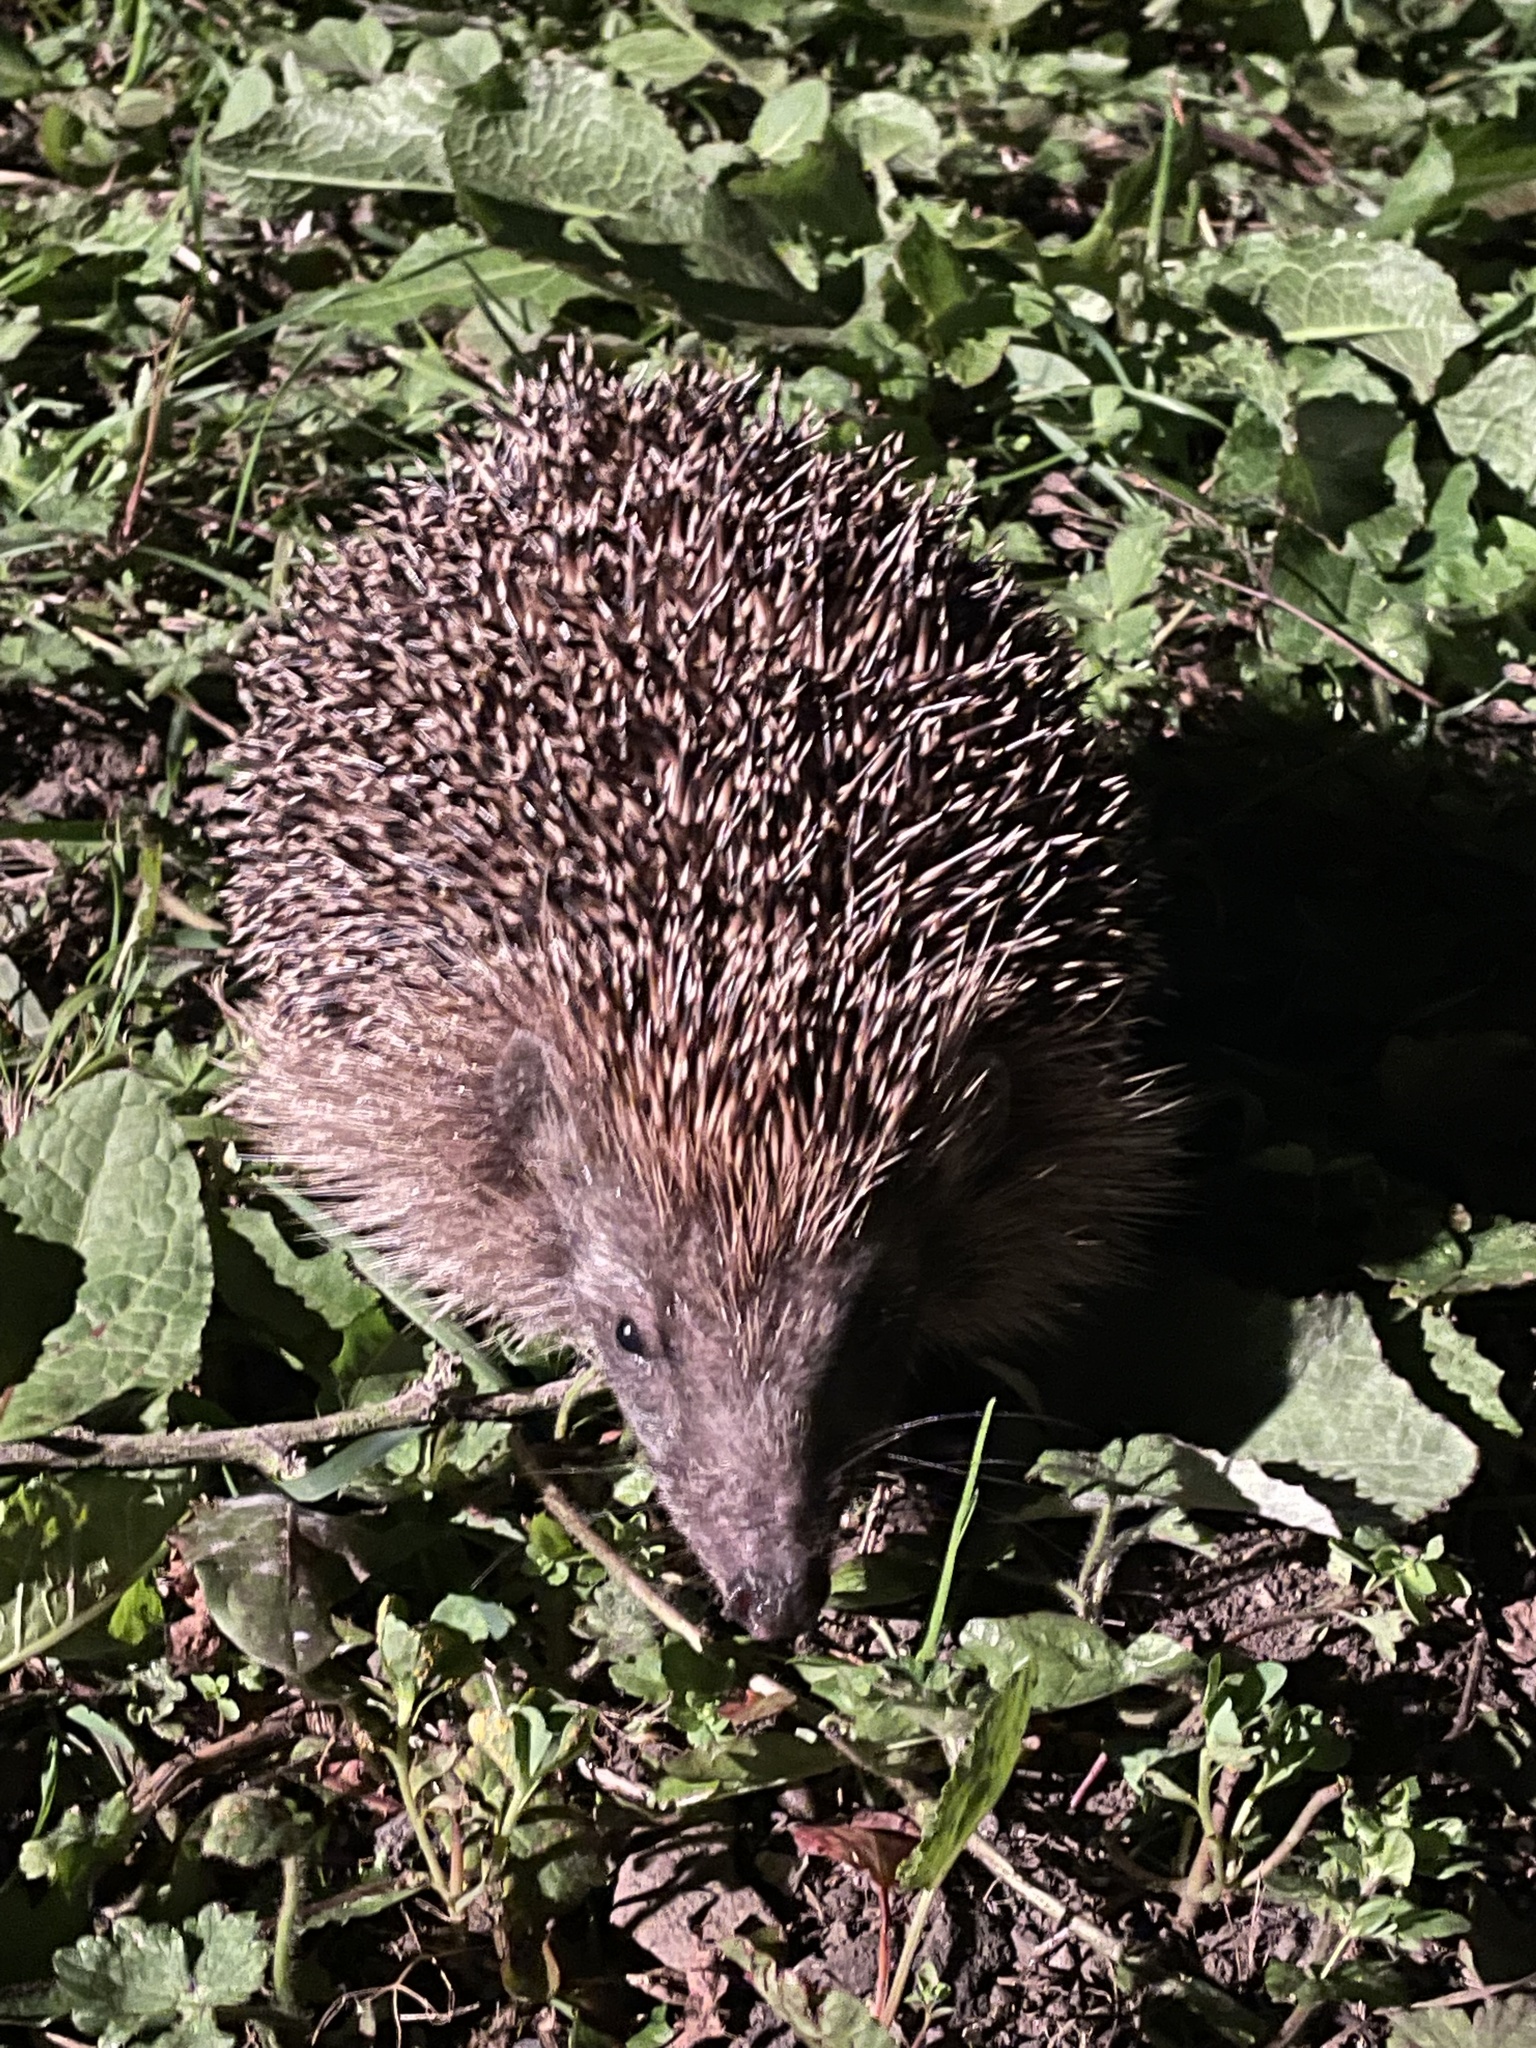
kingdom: Animalia
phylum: Chordata
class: Mammalia
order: Erinaceomorpha
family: Erinaceidae
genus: Erinaceus
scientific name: Erinaceus europaeus
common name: West european hedgehog
